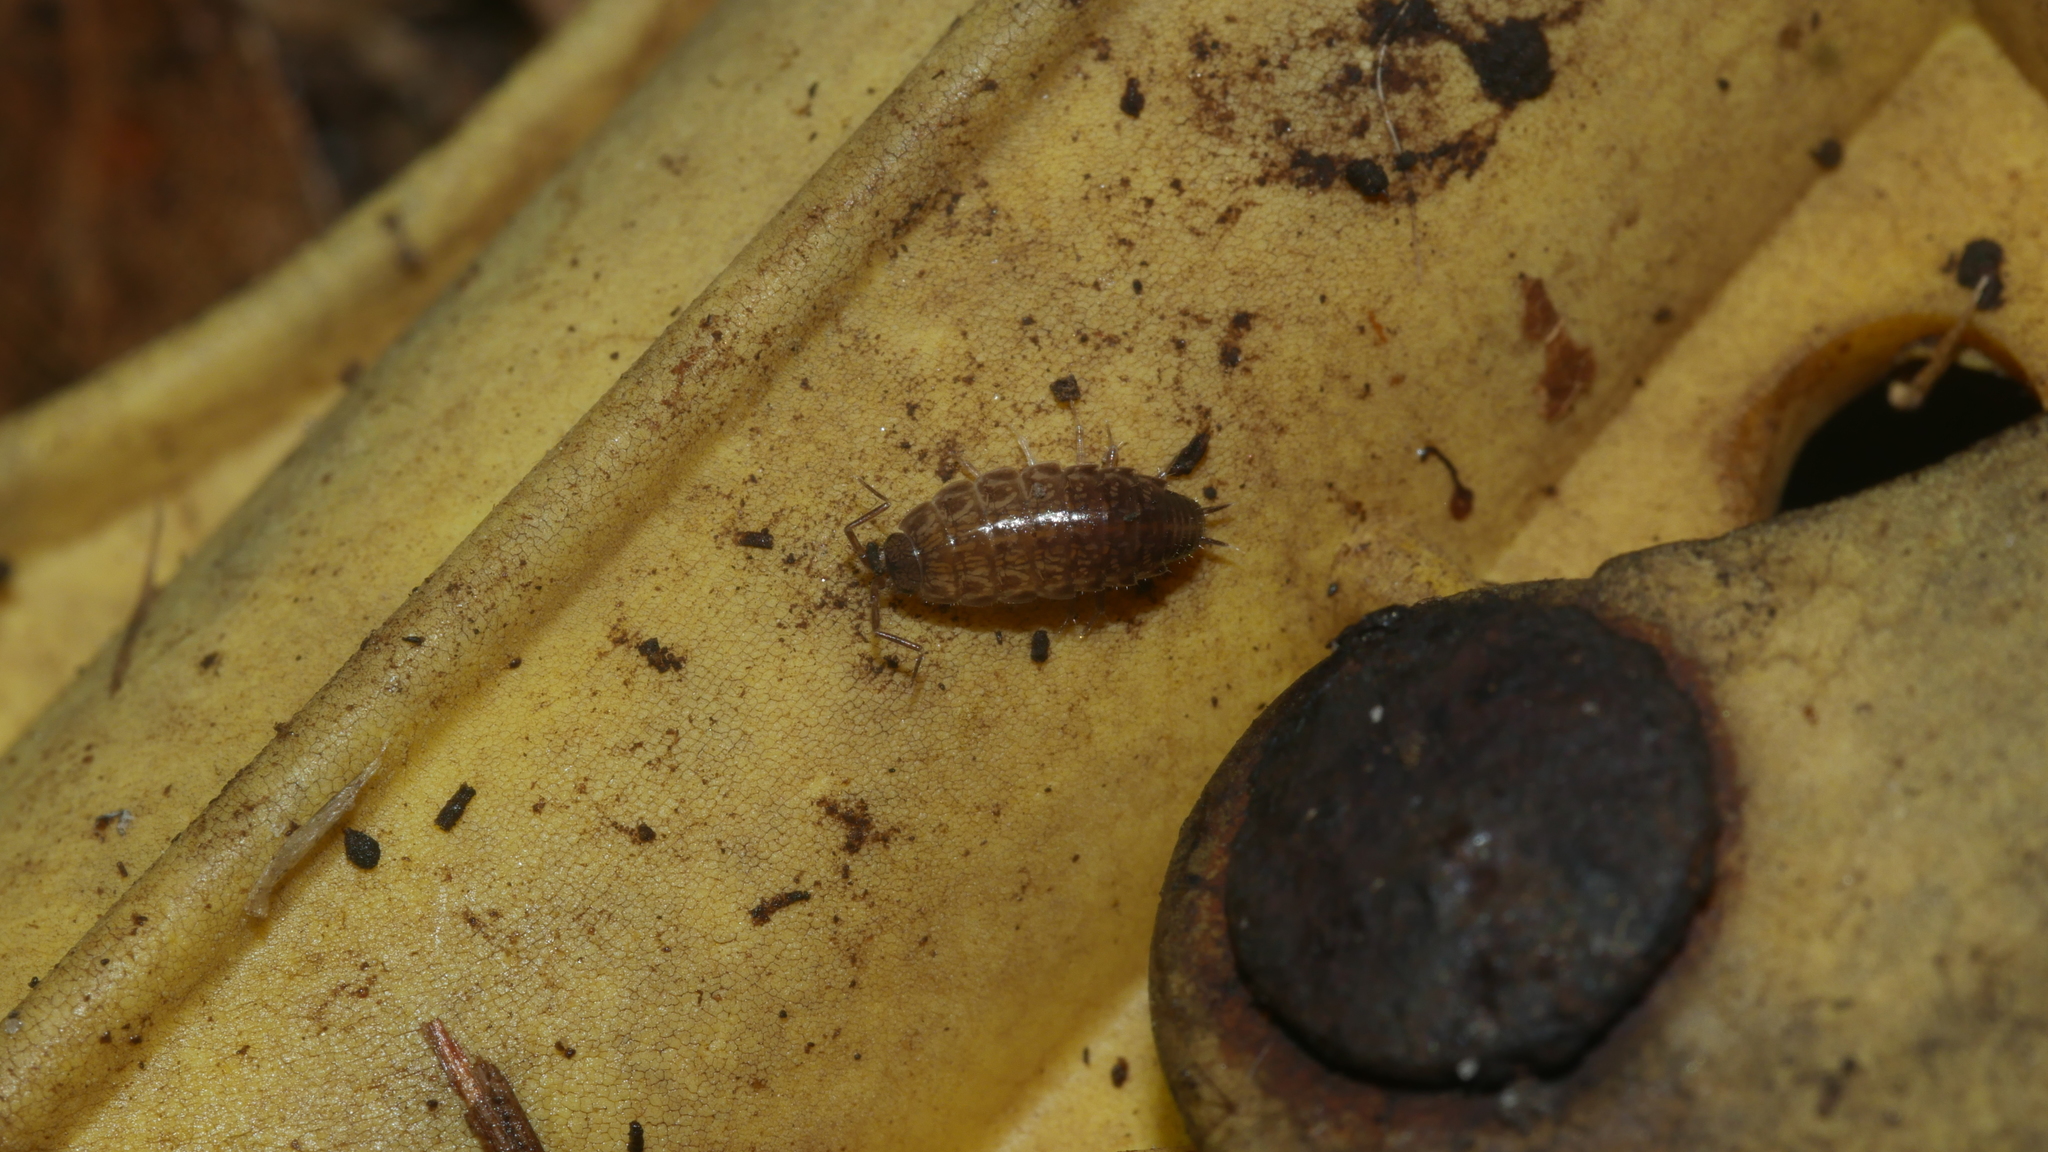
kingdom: Animalia
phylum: Arthropoda
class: Malacostraca
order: Isopoda
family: Philosciidae
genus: Chaetophiloscia
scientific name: Chaetophiloscia sicula
